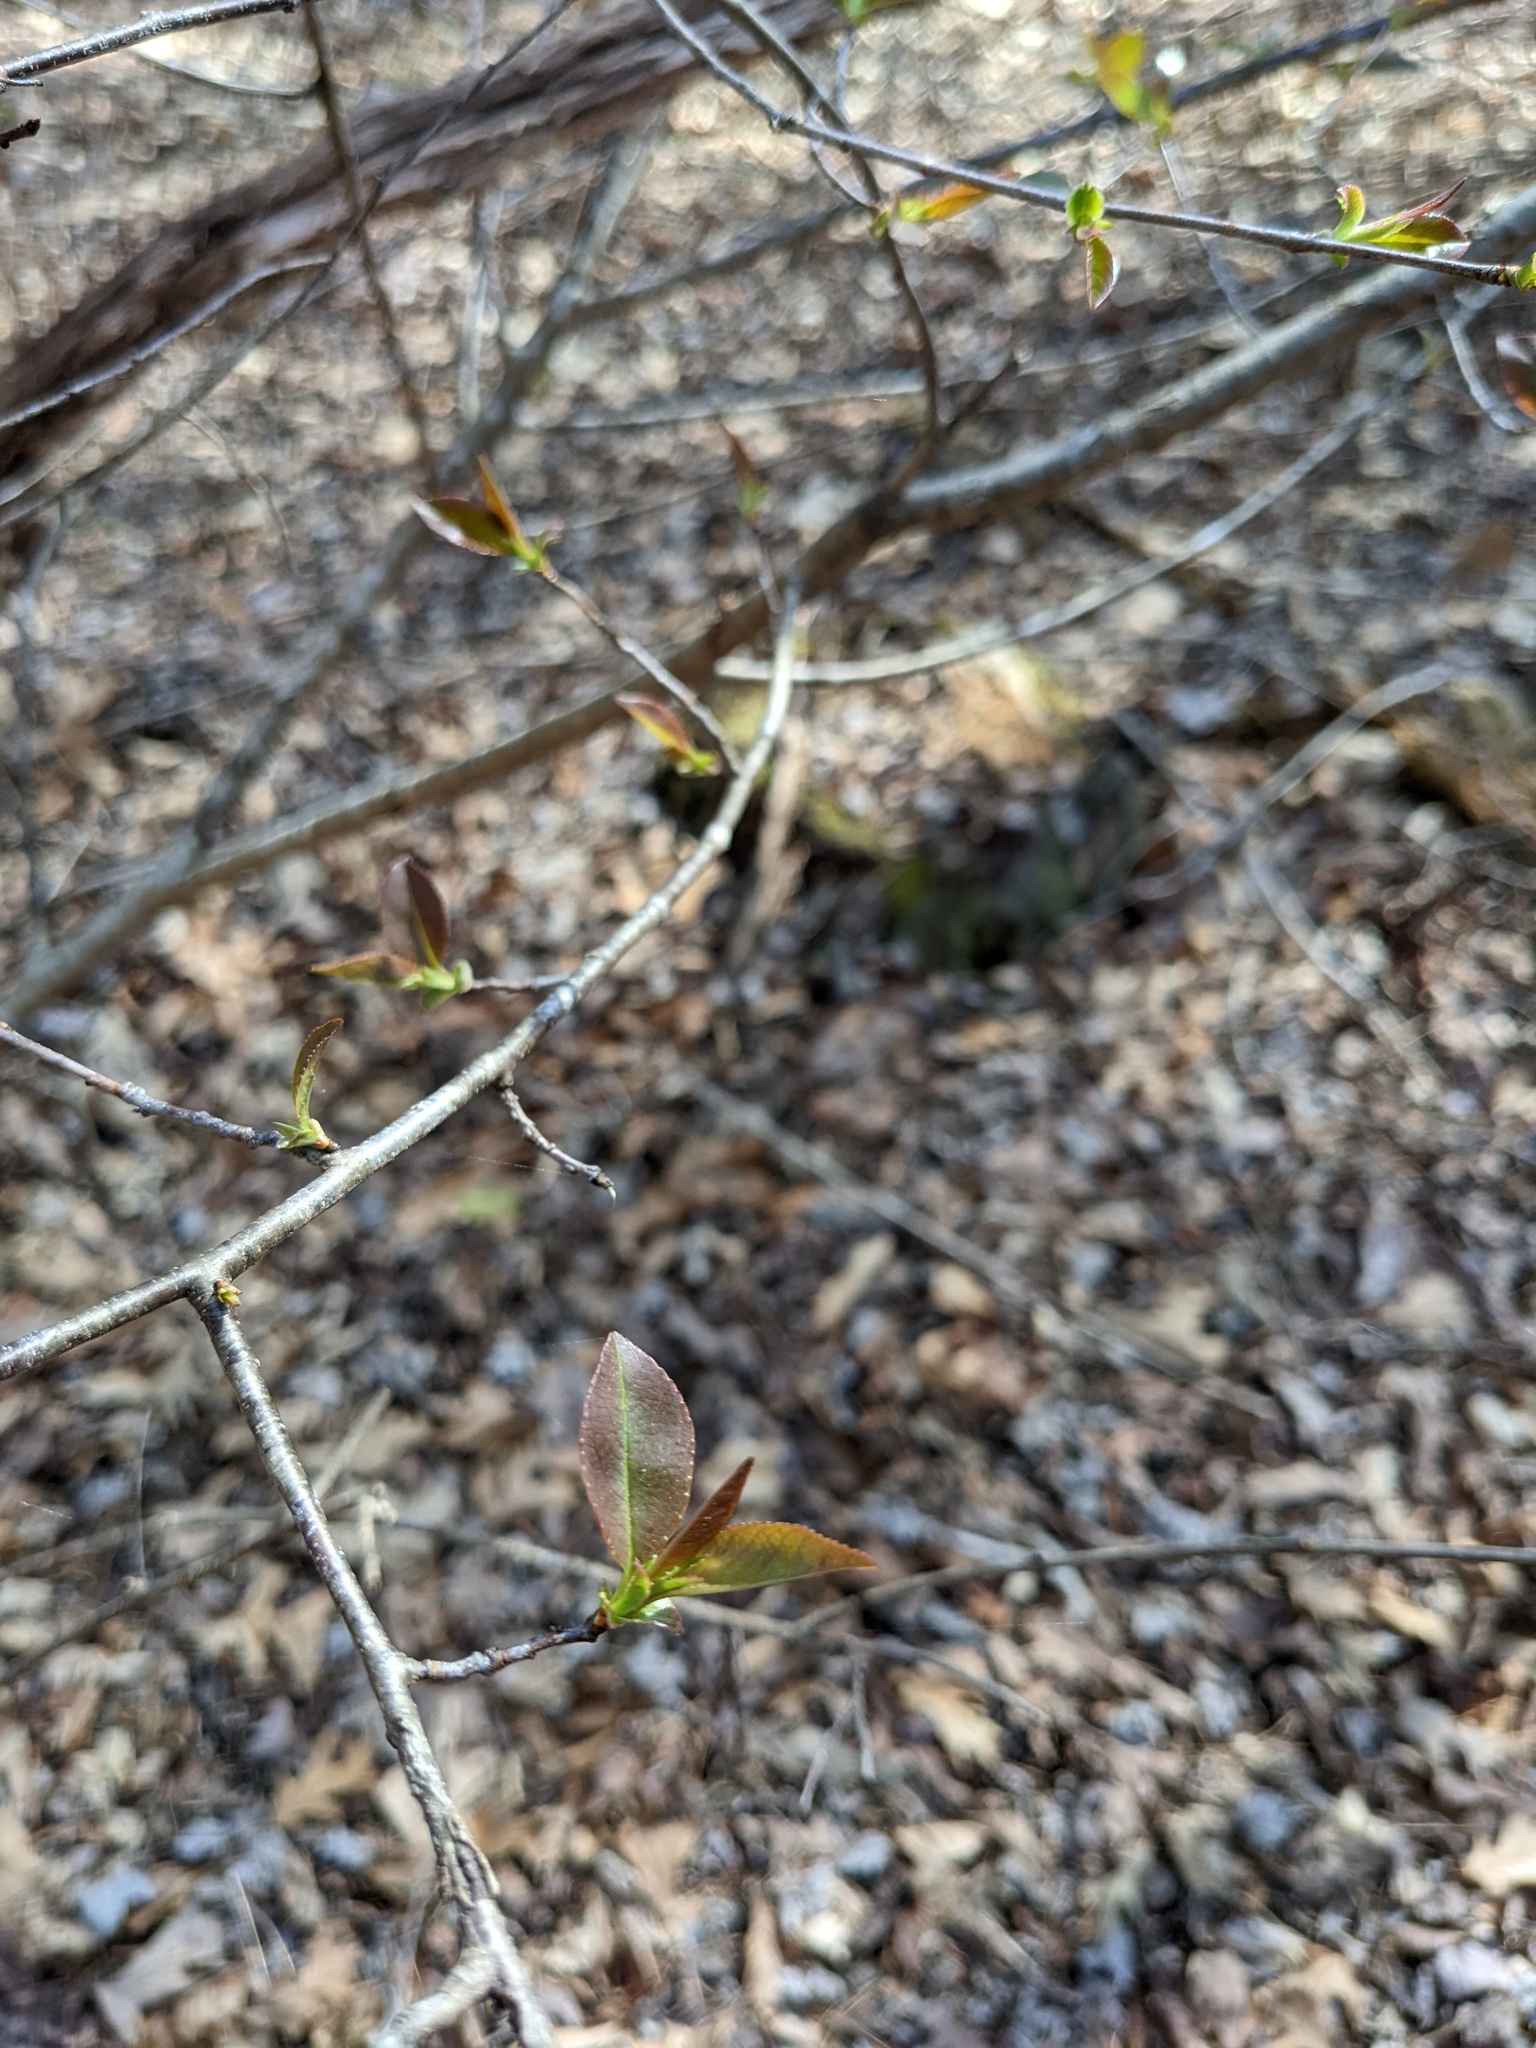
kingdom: Plantae
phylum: Tracheophyta
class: Magnoliopsida
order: Rosales
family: Rosaceae
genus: Prunus
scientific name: Prunus serotina
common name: Black cherry
